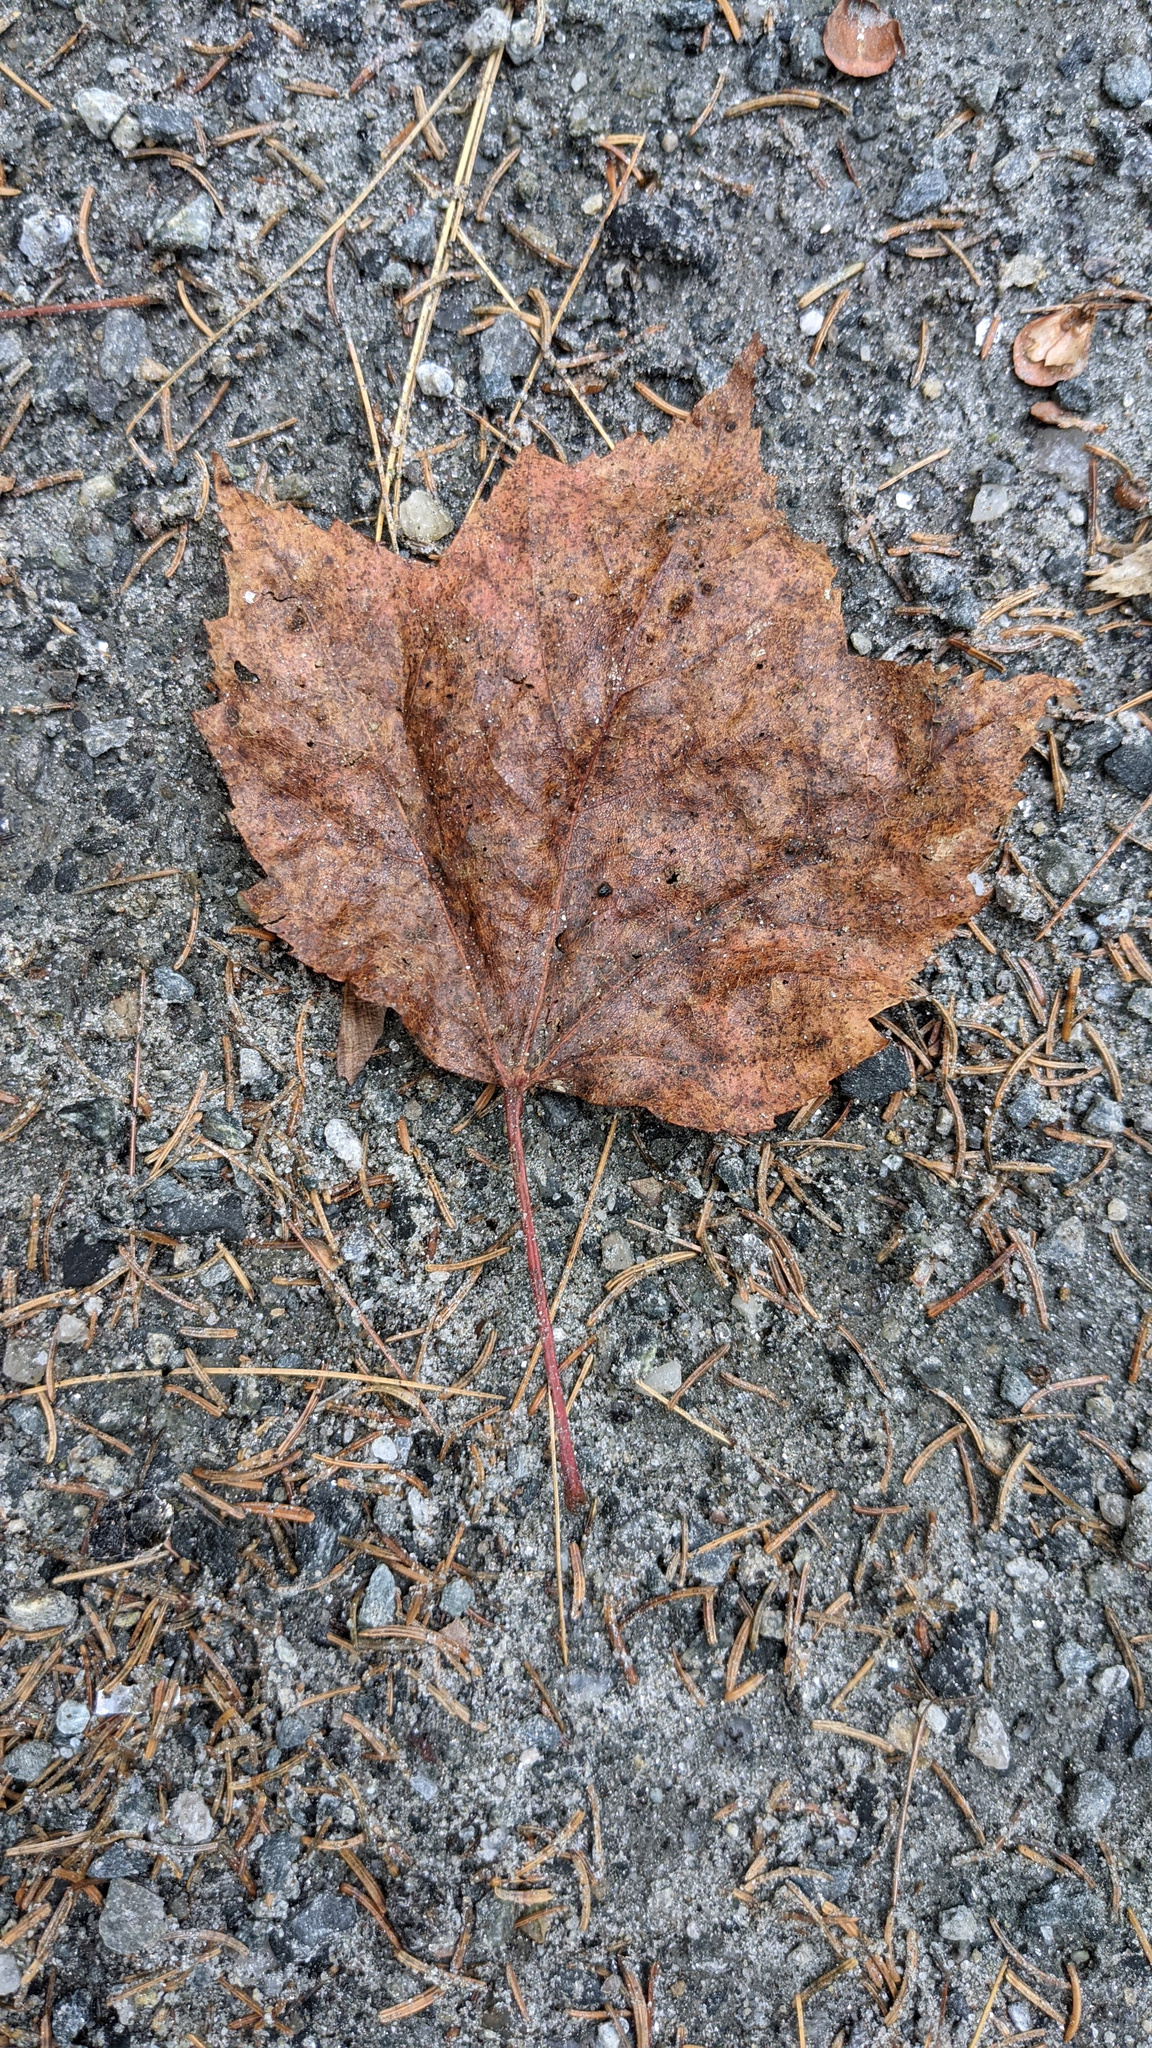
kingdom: Plantae
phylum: Tracheophyta
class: Magnoliopsida
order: Sapindales
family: Sapindaceae
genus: Acer
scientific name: Acer rubrum
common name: Red maple
